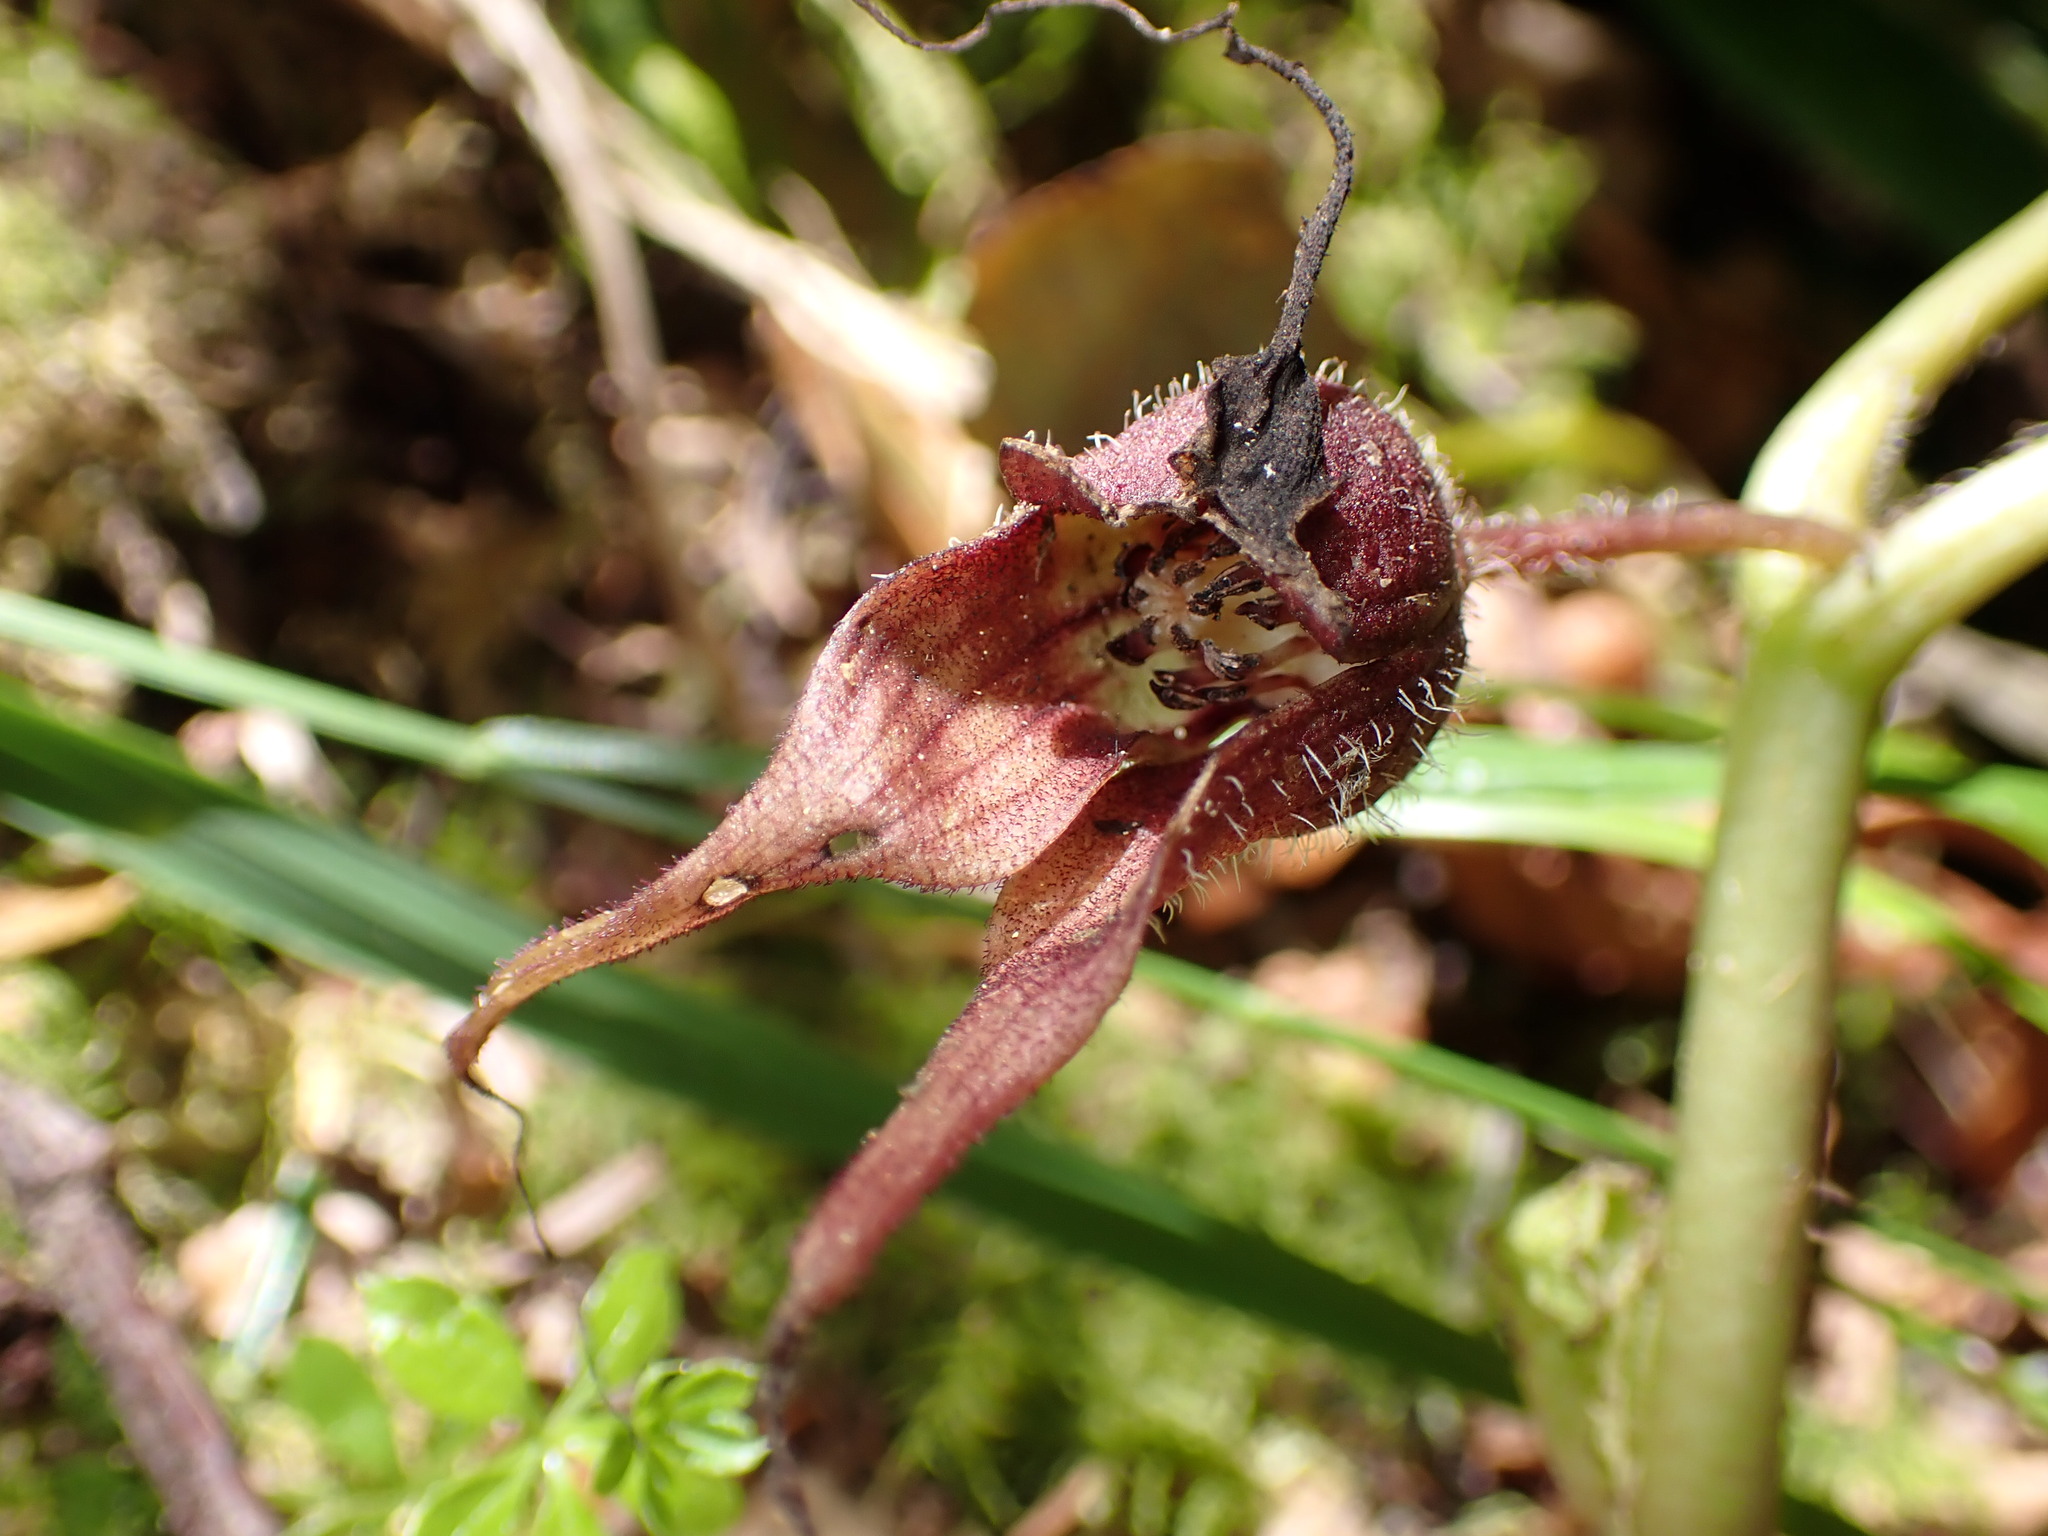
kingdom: Plantae
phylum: Tracheophyta
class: Magnoliopsida
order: Piperales
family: Aristolochiaceae
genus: Asarum
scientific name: Asarum caudatum
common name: Wild ginger
